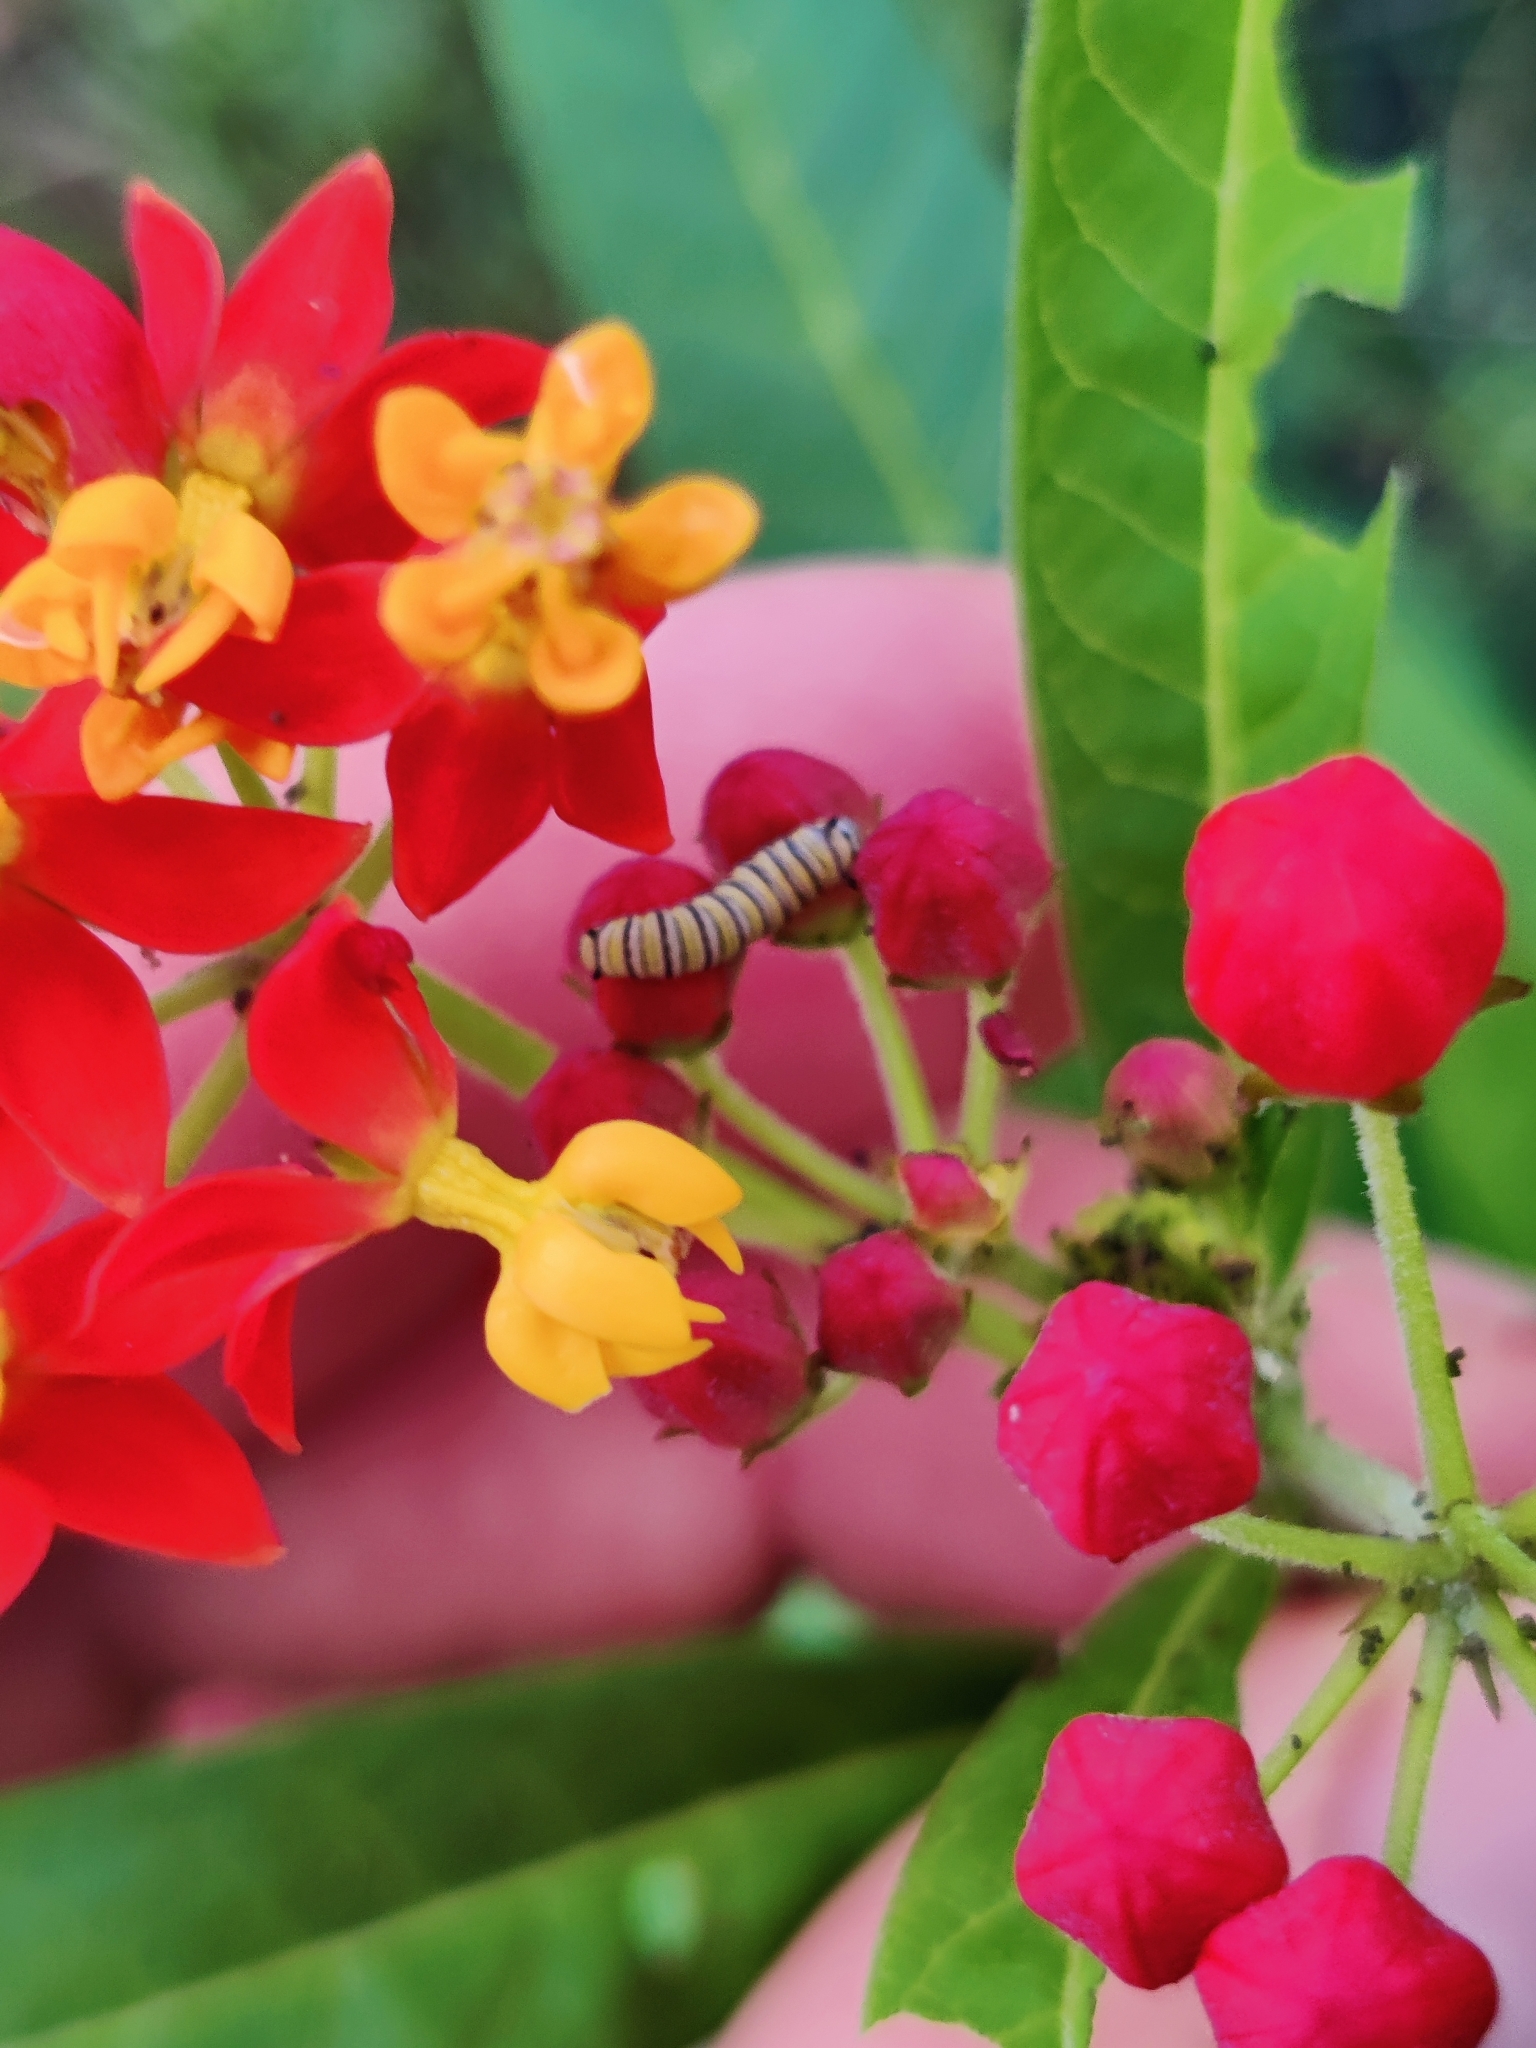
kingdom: Animalia
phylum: Arthropoda
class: Insecta
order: Lepidoptera
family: Nymphalidae
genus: Danaus
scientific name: Danaus plexippus
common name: Monarch
